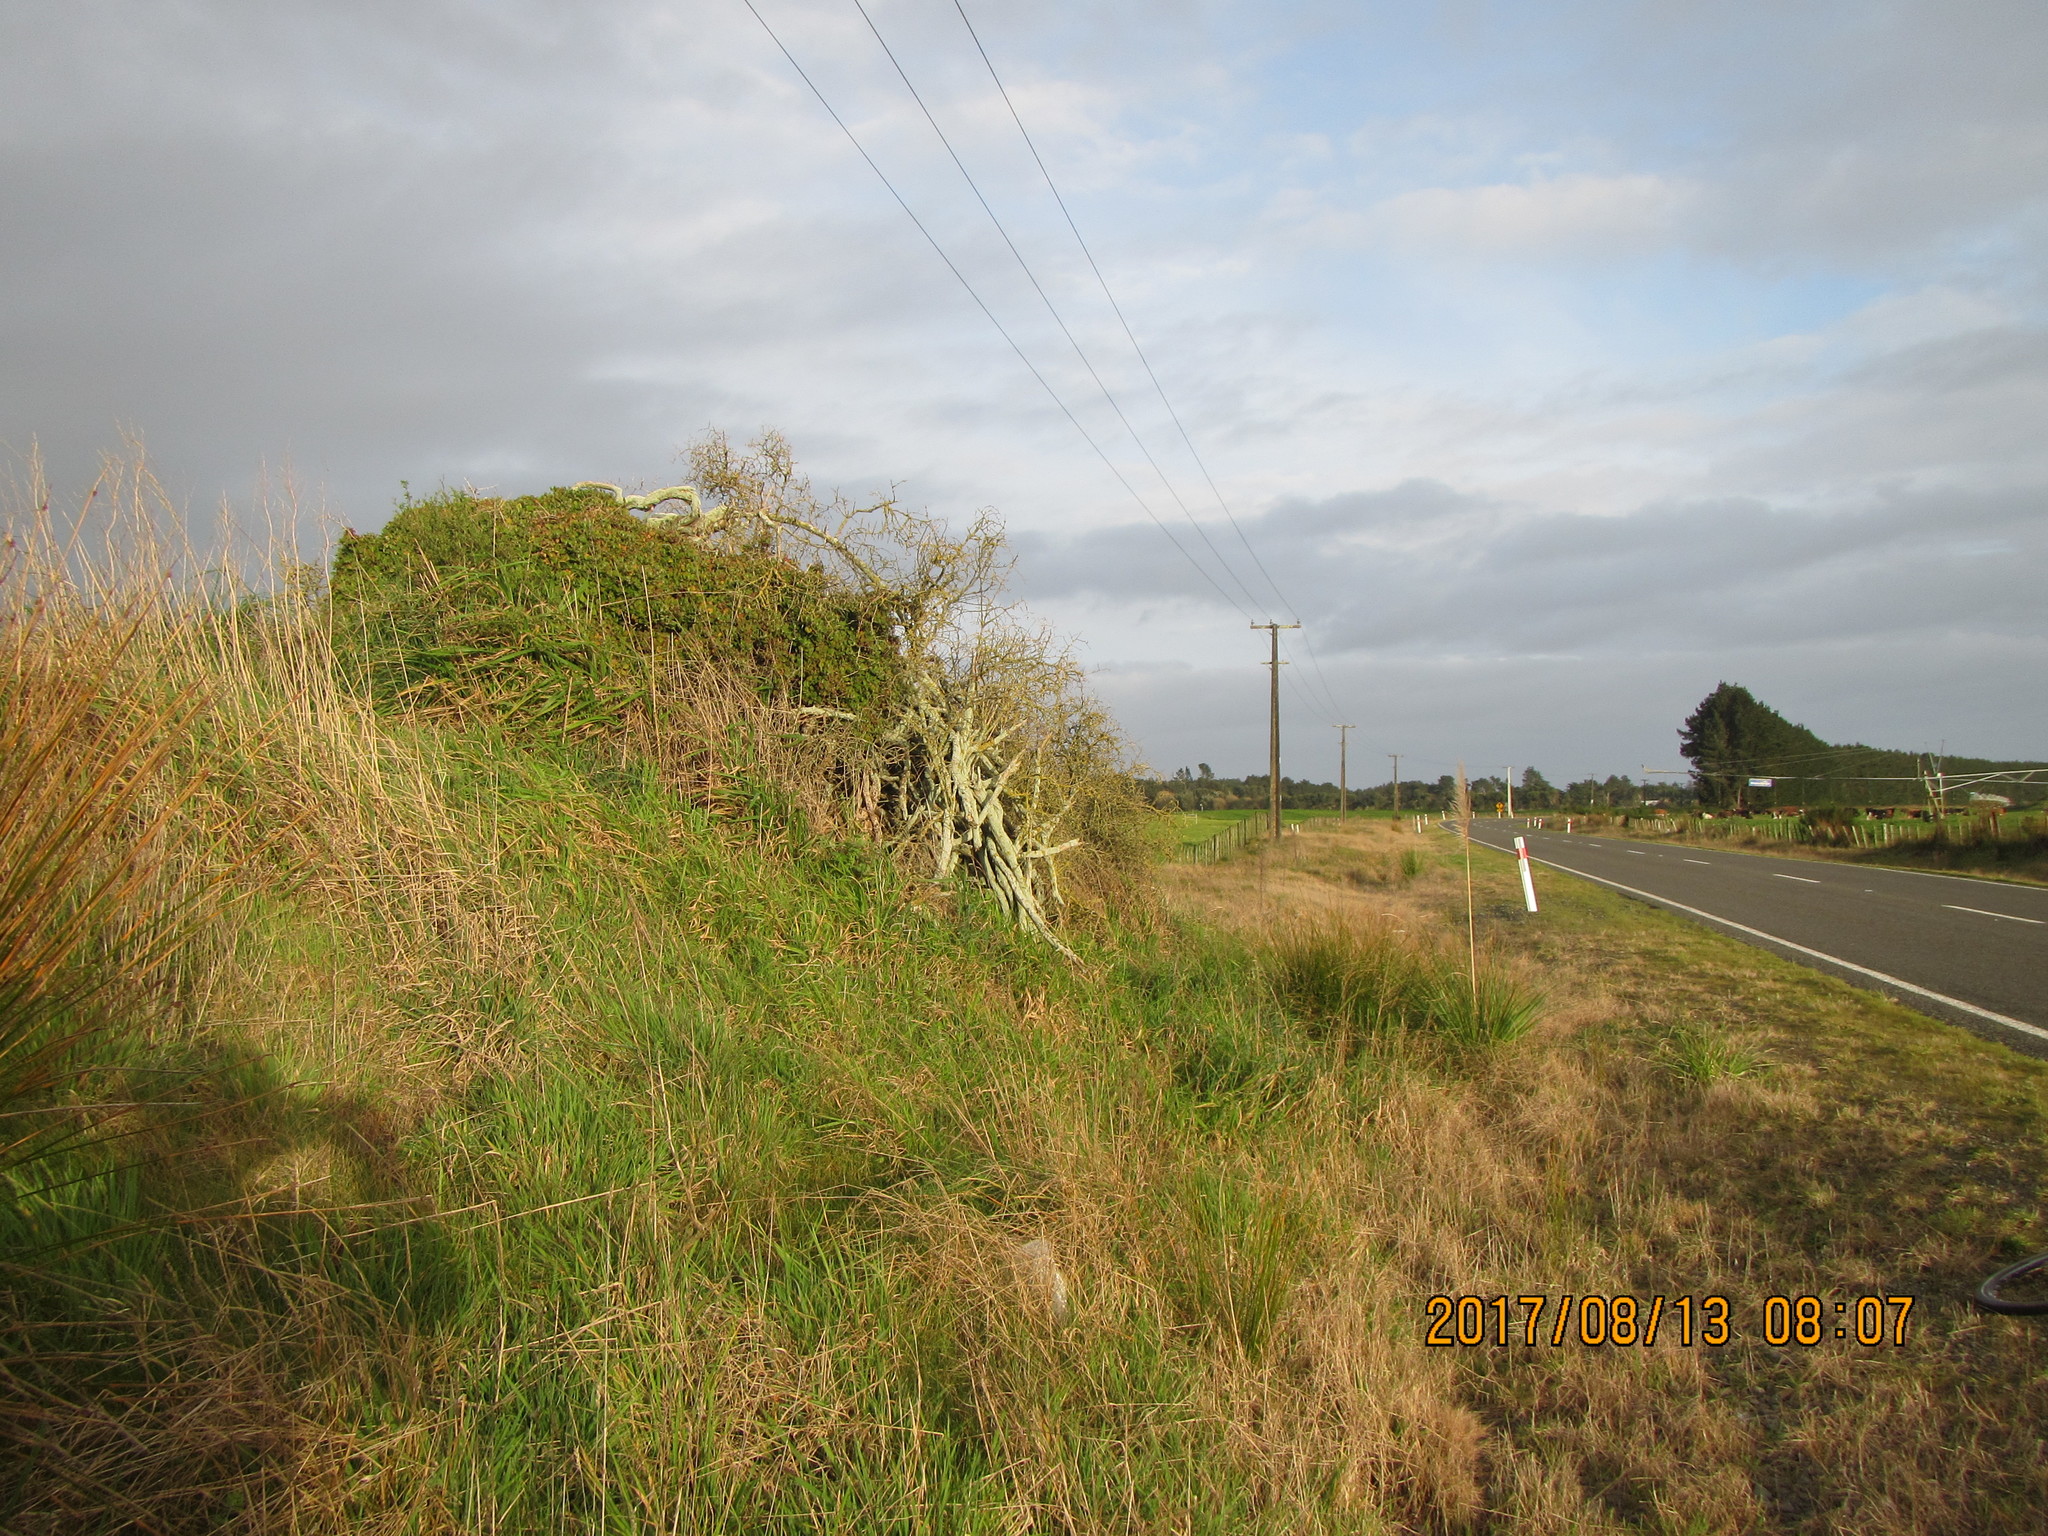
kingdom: Plantae
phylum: Tracheophyta
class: Magnoliopsida
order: Caryophyllales
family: Aizoaceae
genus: Tetragonia
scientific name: Tetragonia implexicoma
